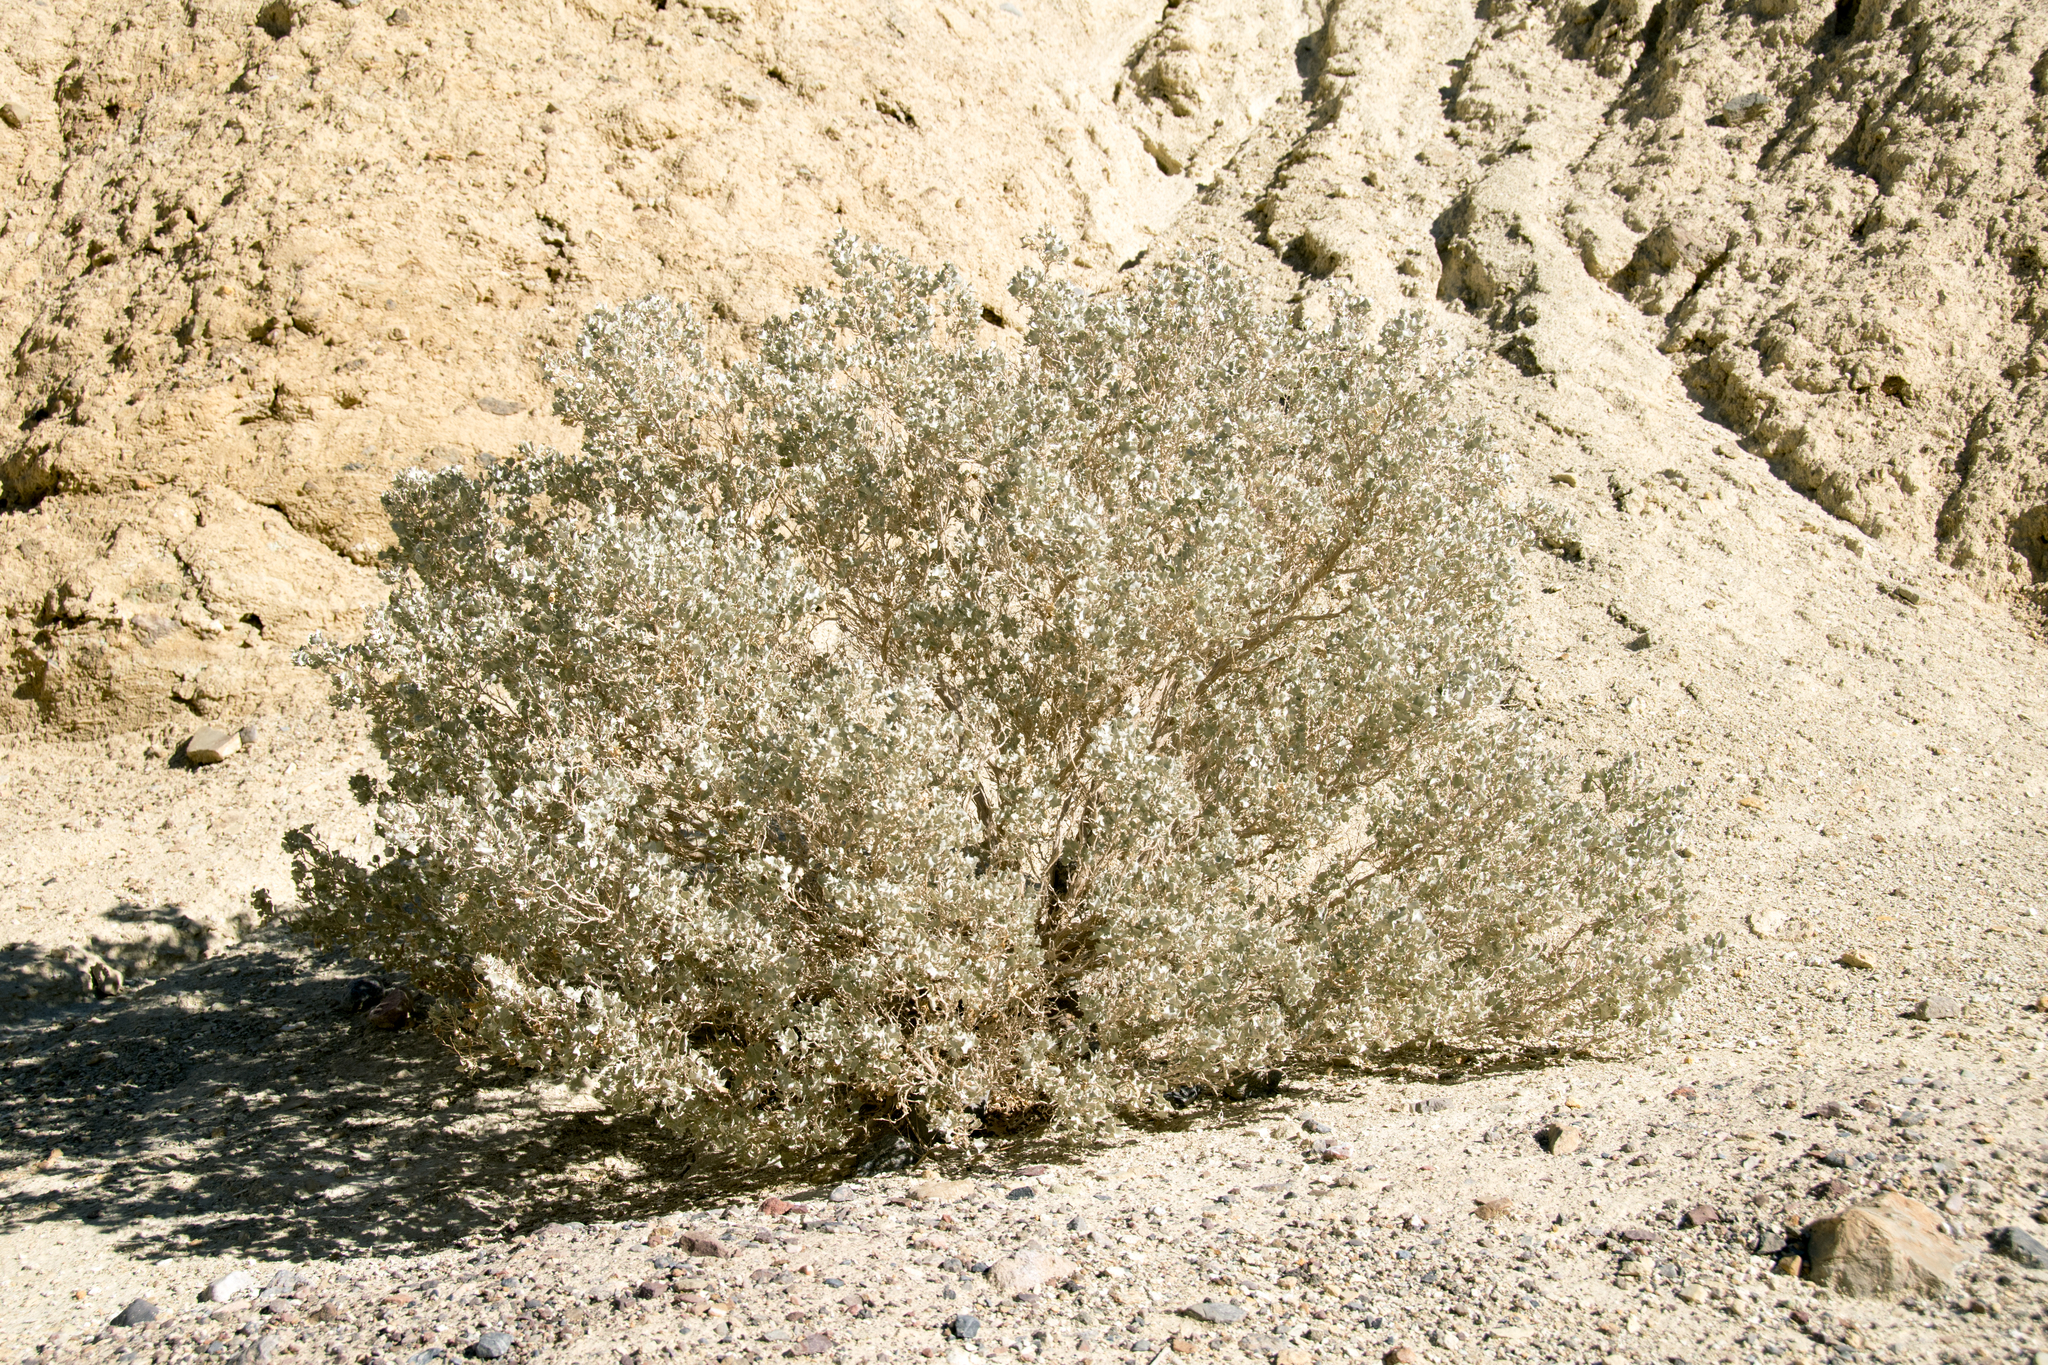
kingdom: Plantae
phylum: Tracheophyta
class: Magnoliopsida
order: Caryophyllales
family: Amaranthaceae
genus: Atriplex
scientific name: Atriplex hymenelytra
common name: Desert-holly
